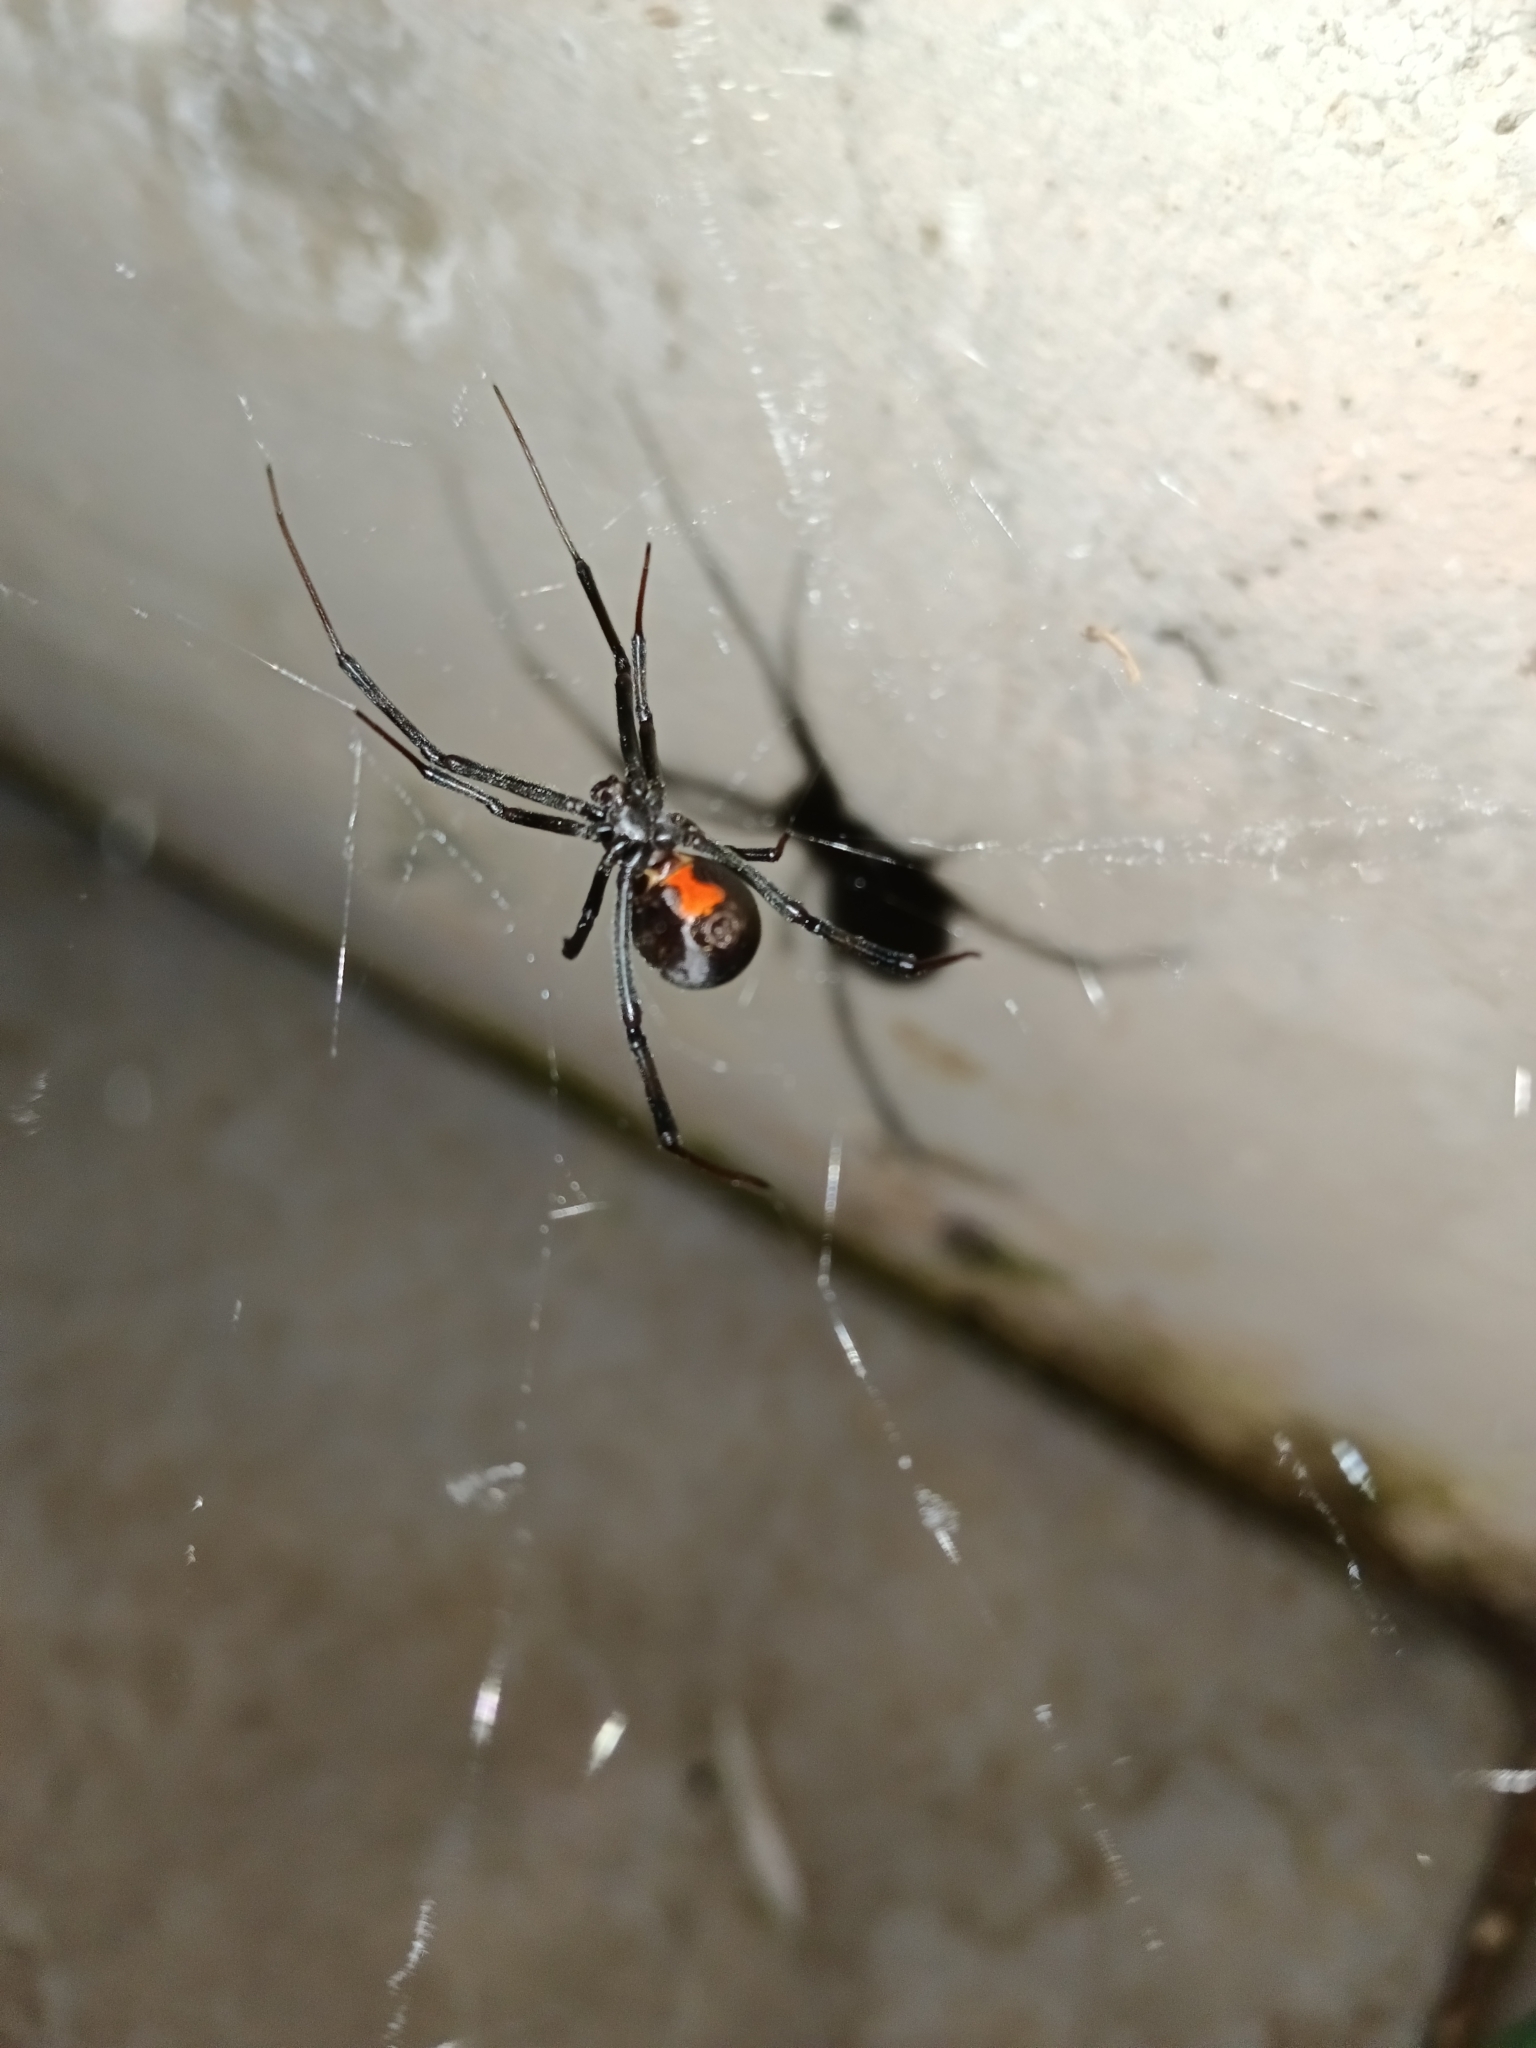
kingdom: Animalia
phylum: Arthropoda
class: Arachnida
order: Araneae
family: Theridiidae
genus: Latrodectus
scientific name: Latrodectus geometricus
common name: Brown widow spider
